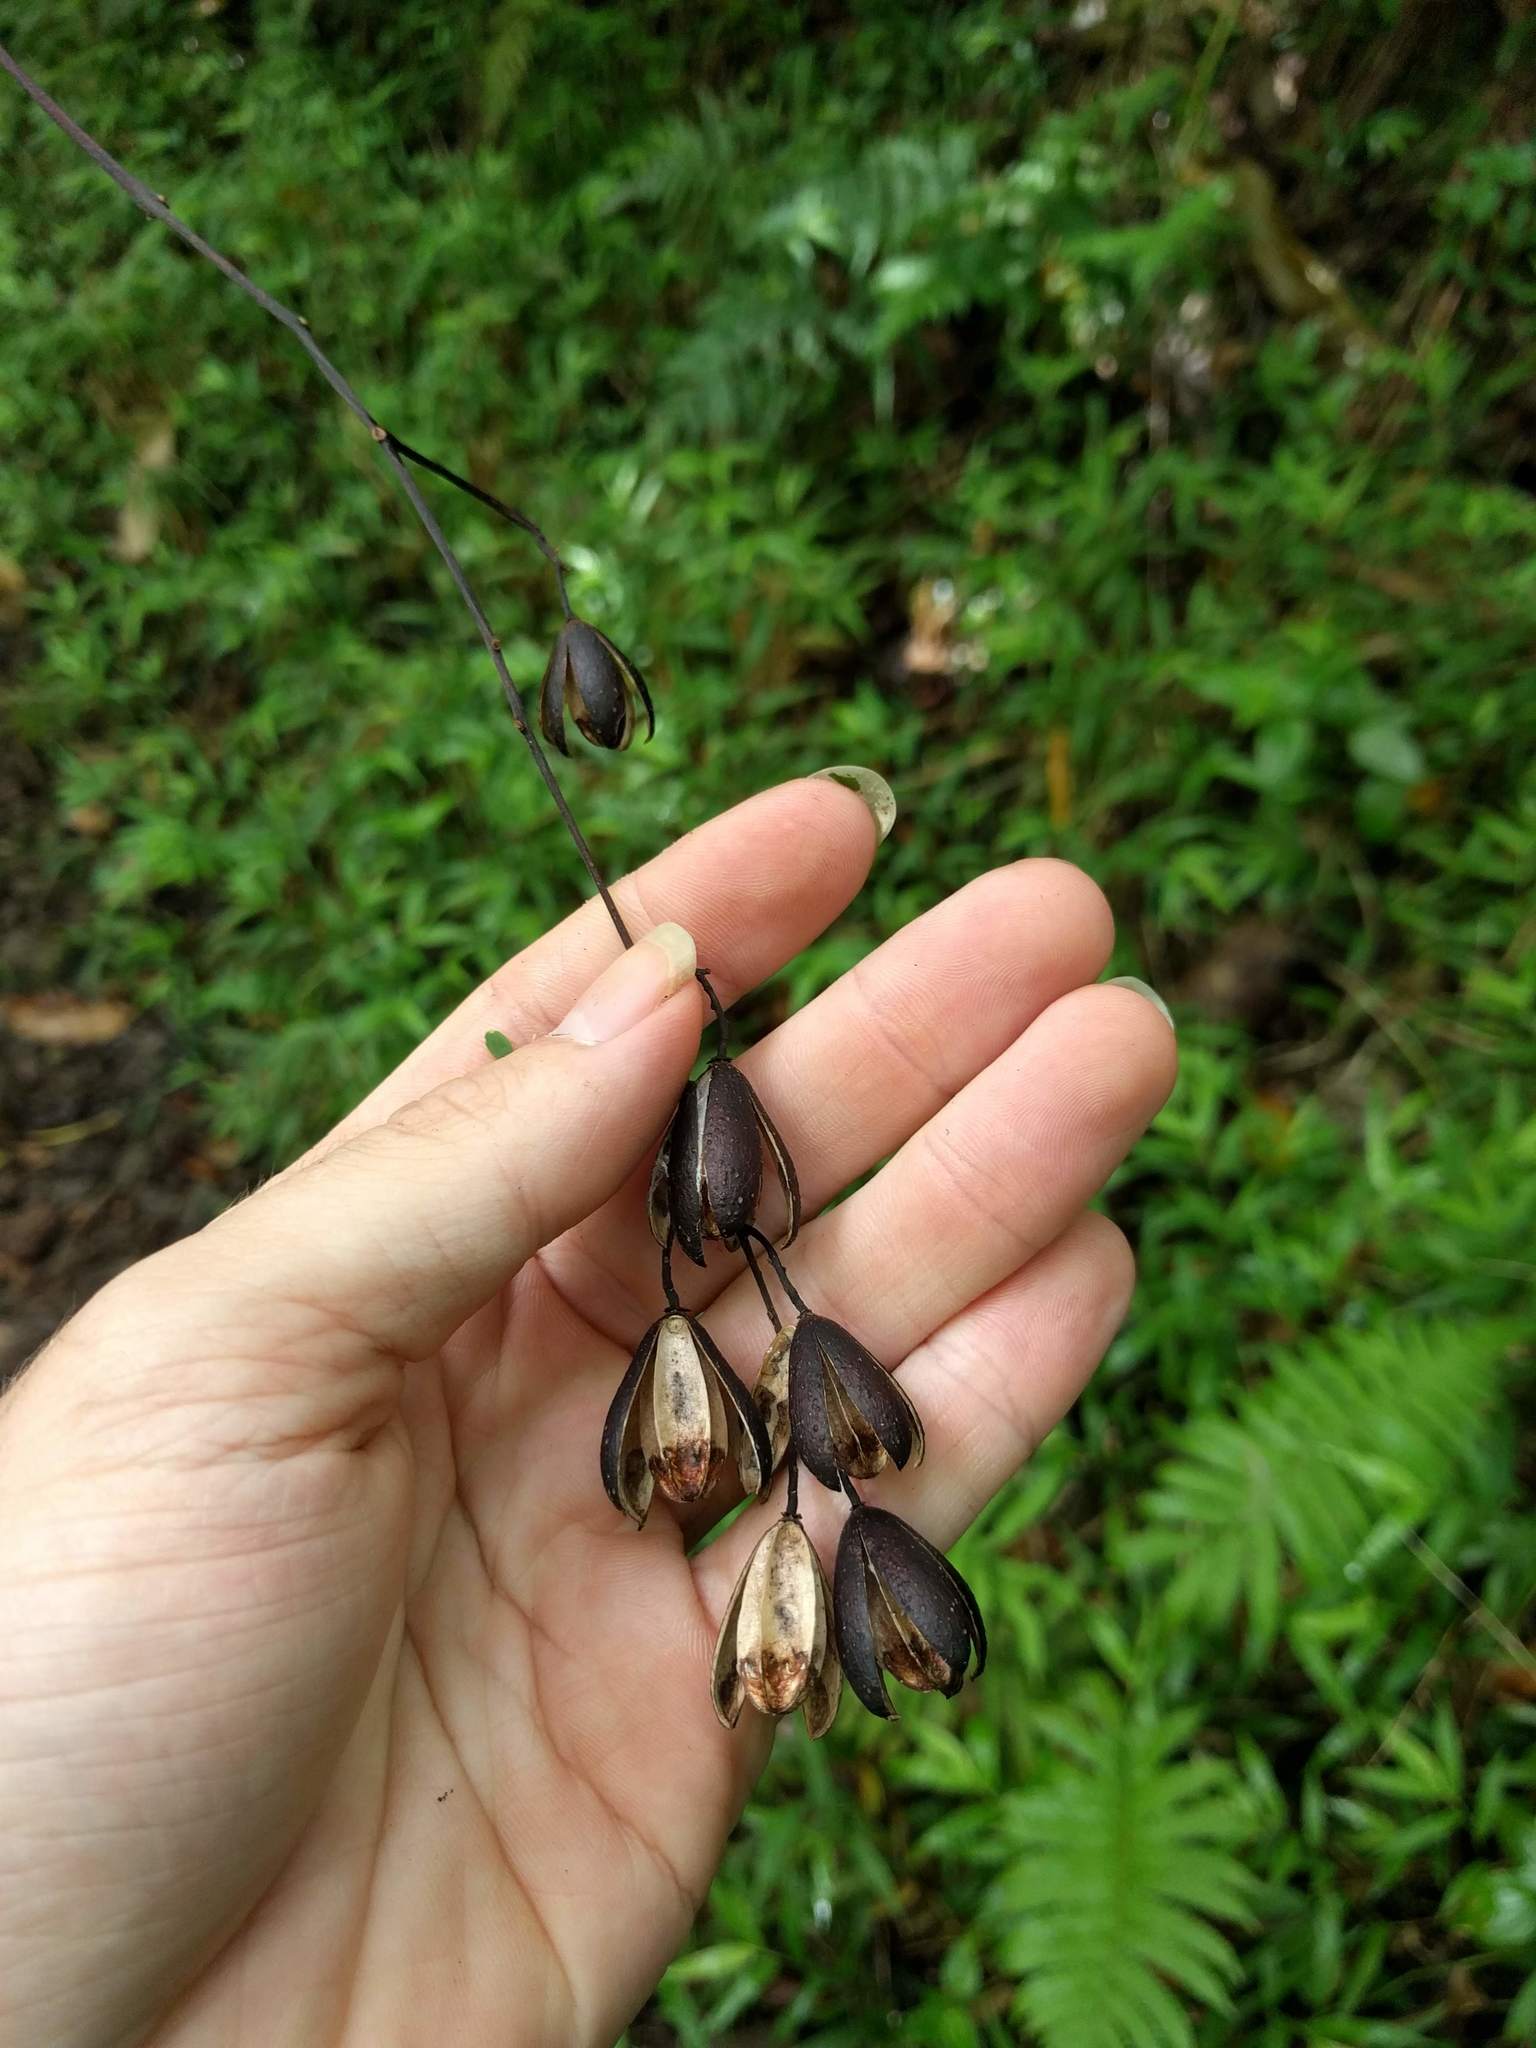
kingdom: Plantae
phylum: Tracheophyta
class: Magnoliopsida
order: Sapindales
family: Meliaceae
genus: Toona
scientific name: Toona ciliata
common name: Australian redcedar
